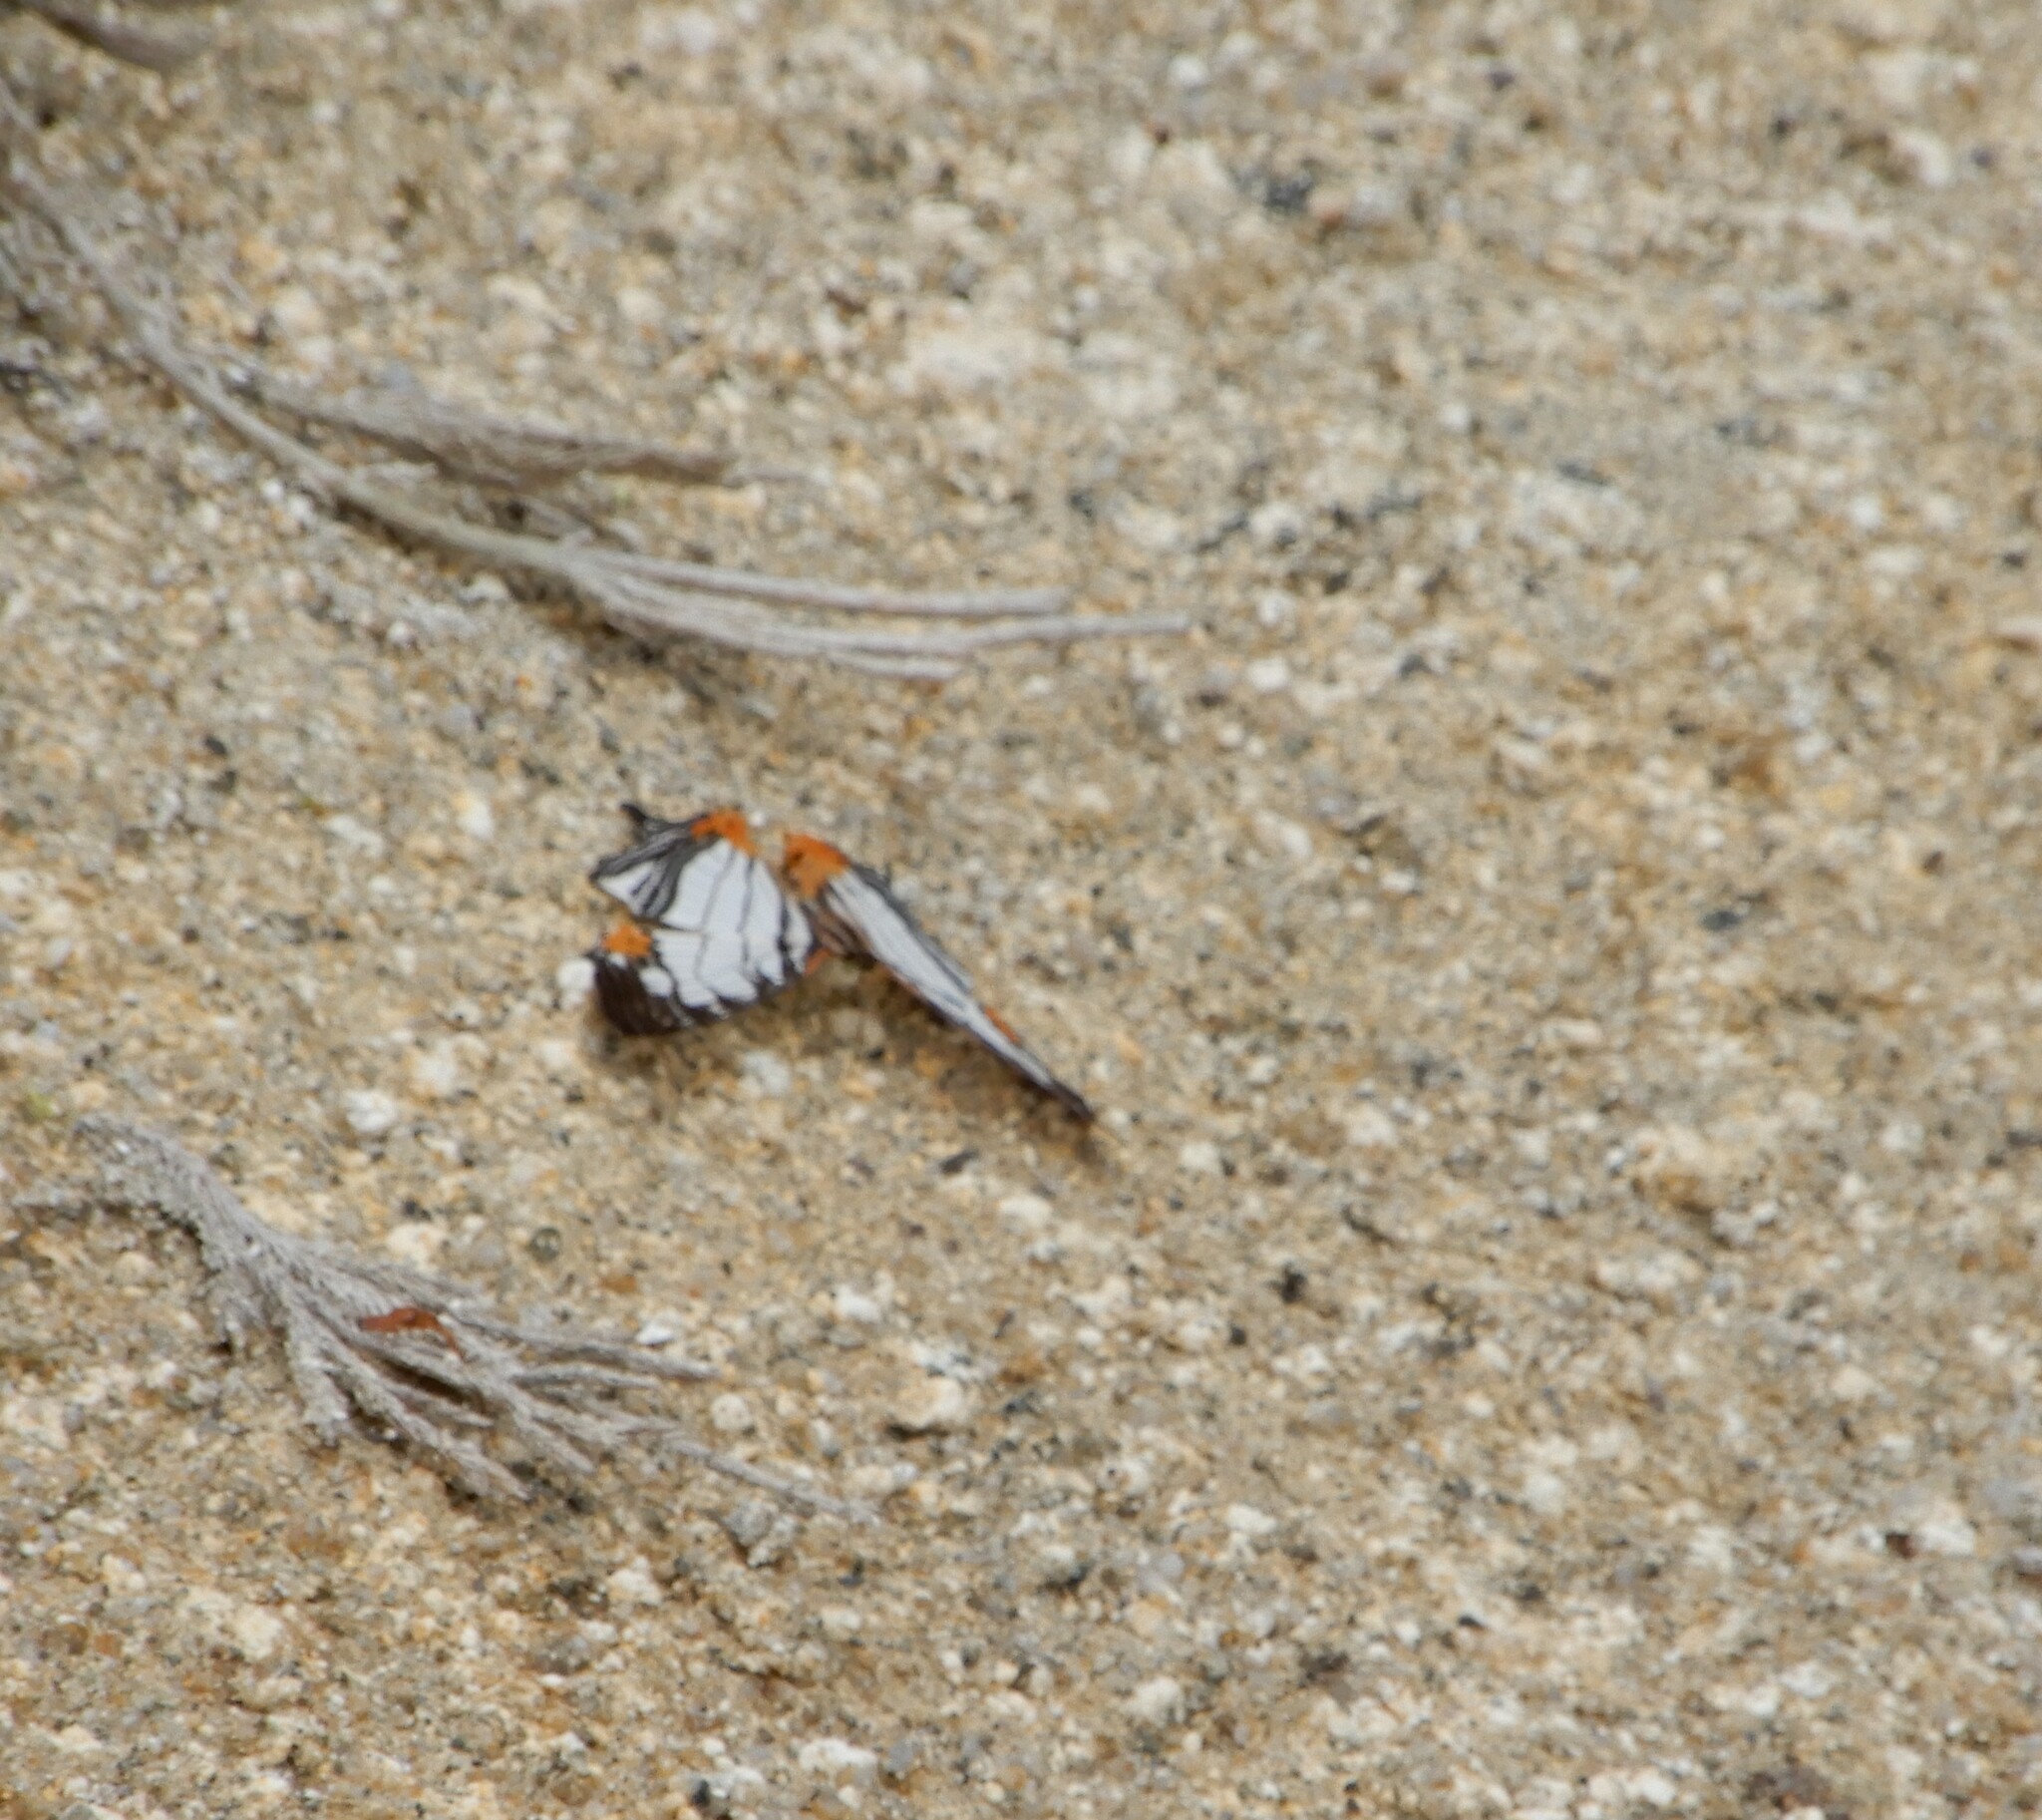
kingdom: Animalia
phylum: Arthropoda
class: Insecta
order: Lepidoptera
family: Nymphalidae
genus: Cyrestis
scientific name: Cyrestis nivea
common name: Straight line mapwing
